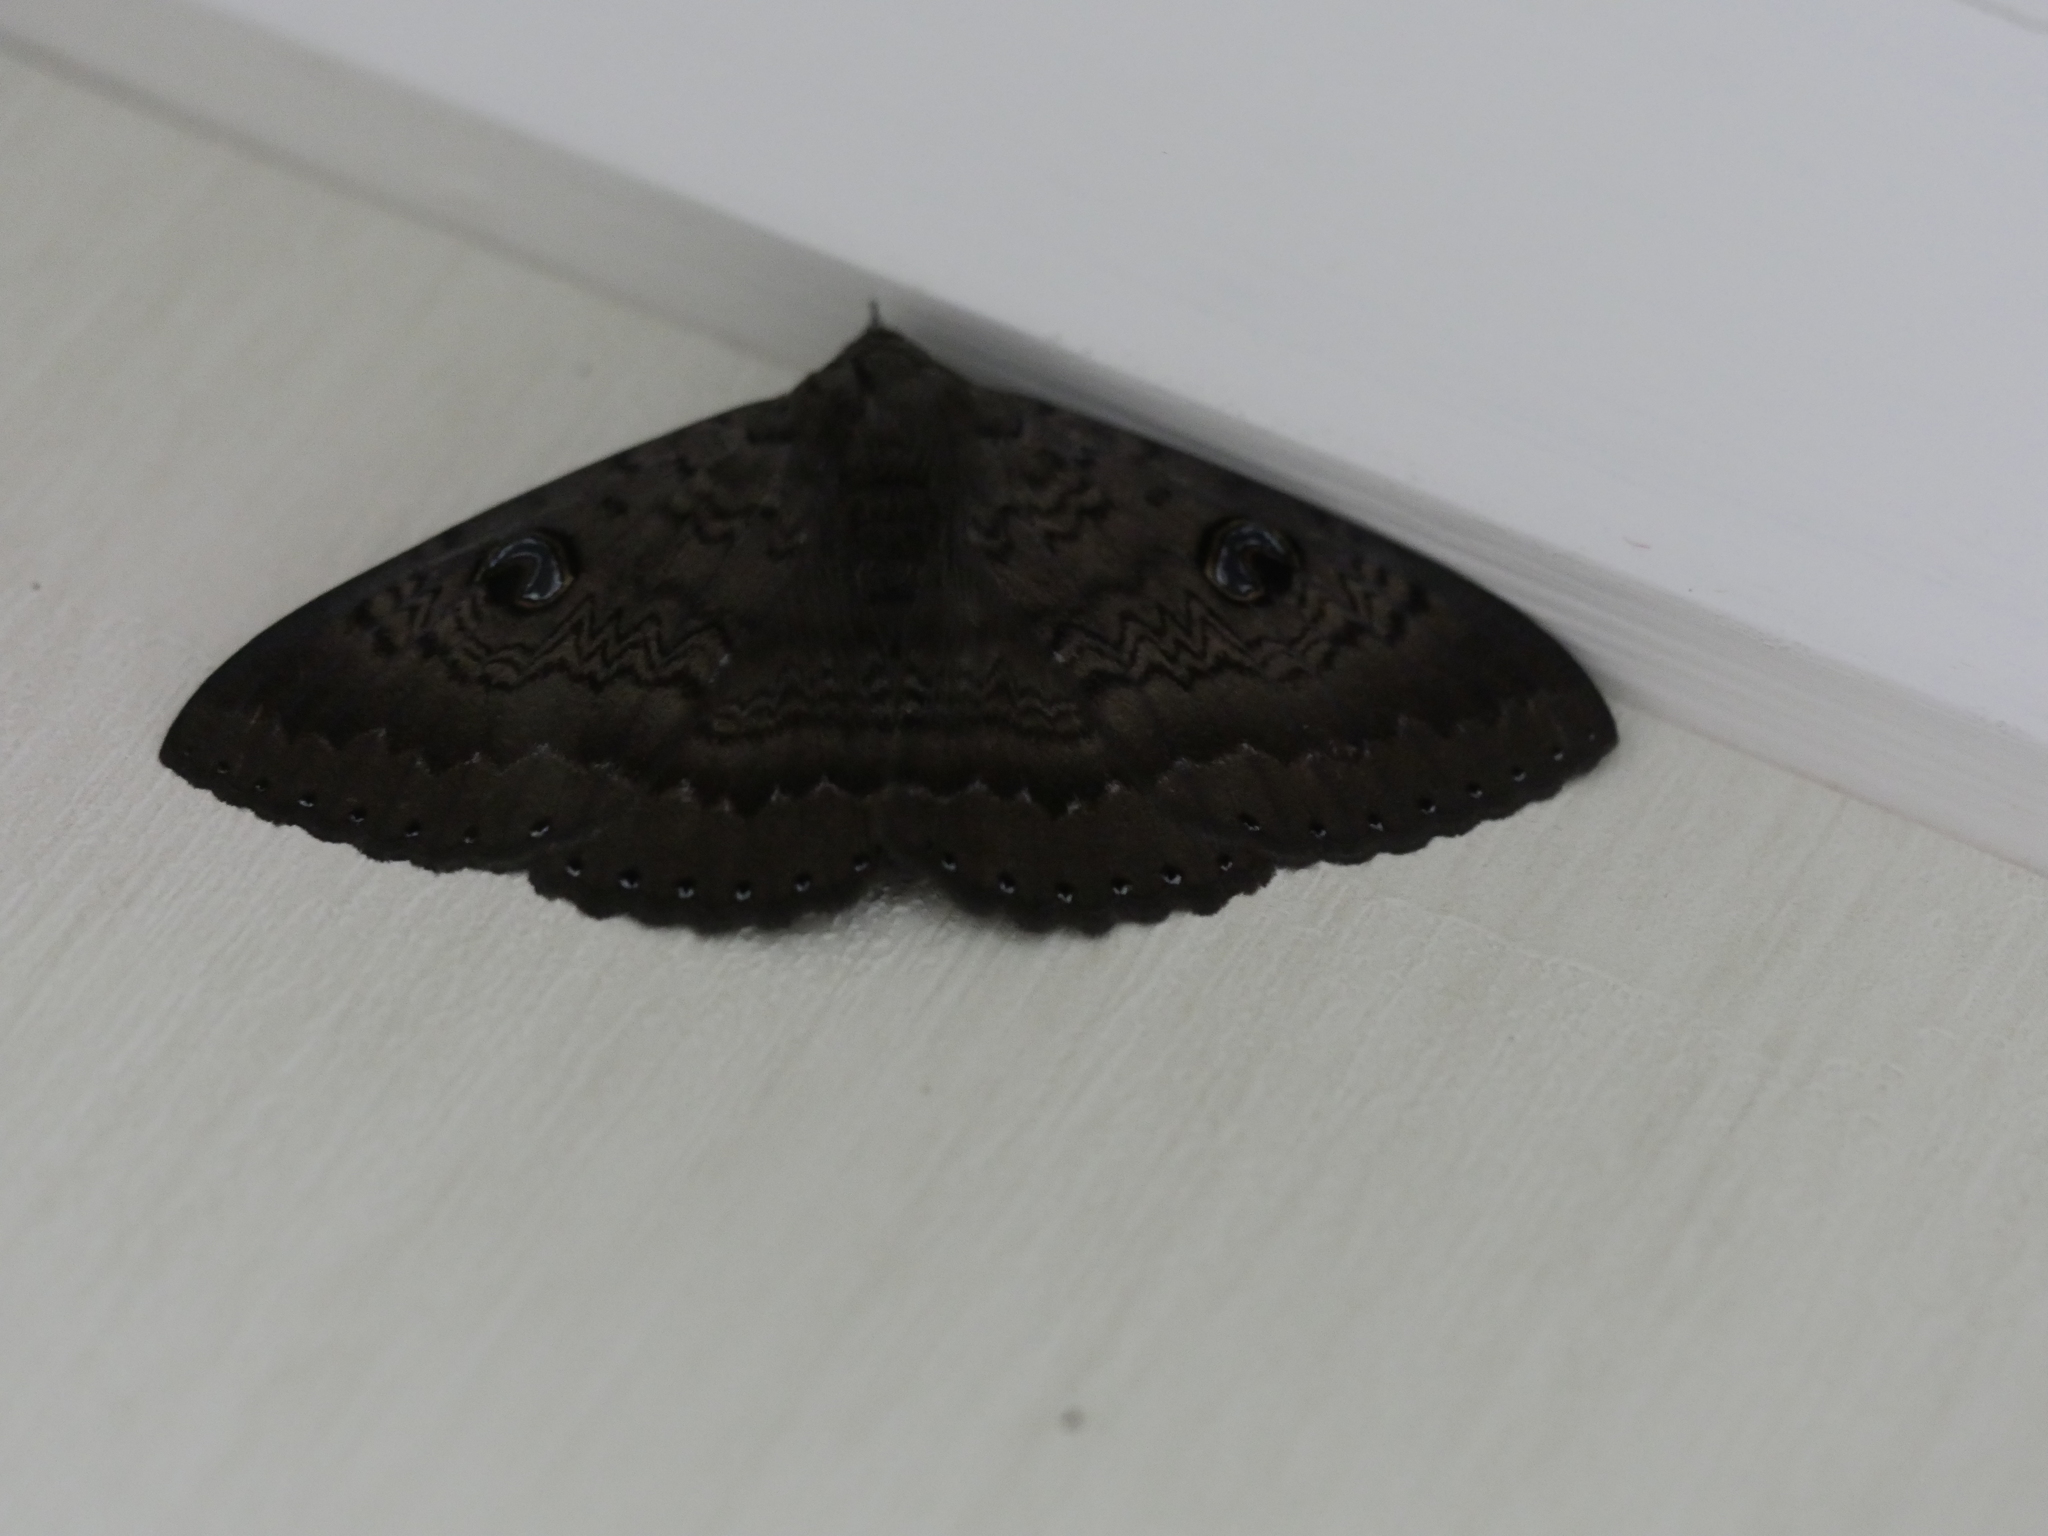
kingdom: Animalia
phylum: Arthropoda
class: Insecta
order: Lepidoptera
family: Erebidae
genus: Dasypodia
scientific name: Dasypodia cymatodes
